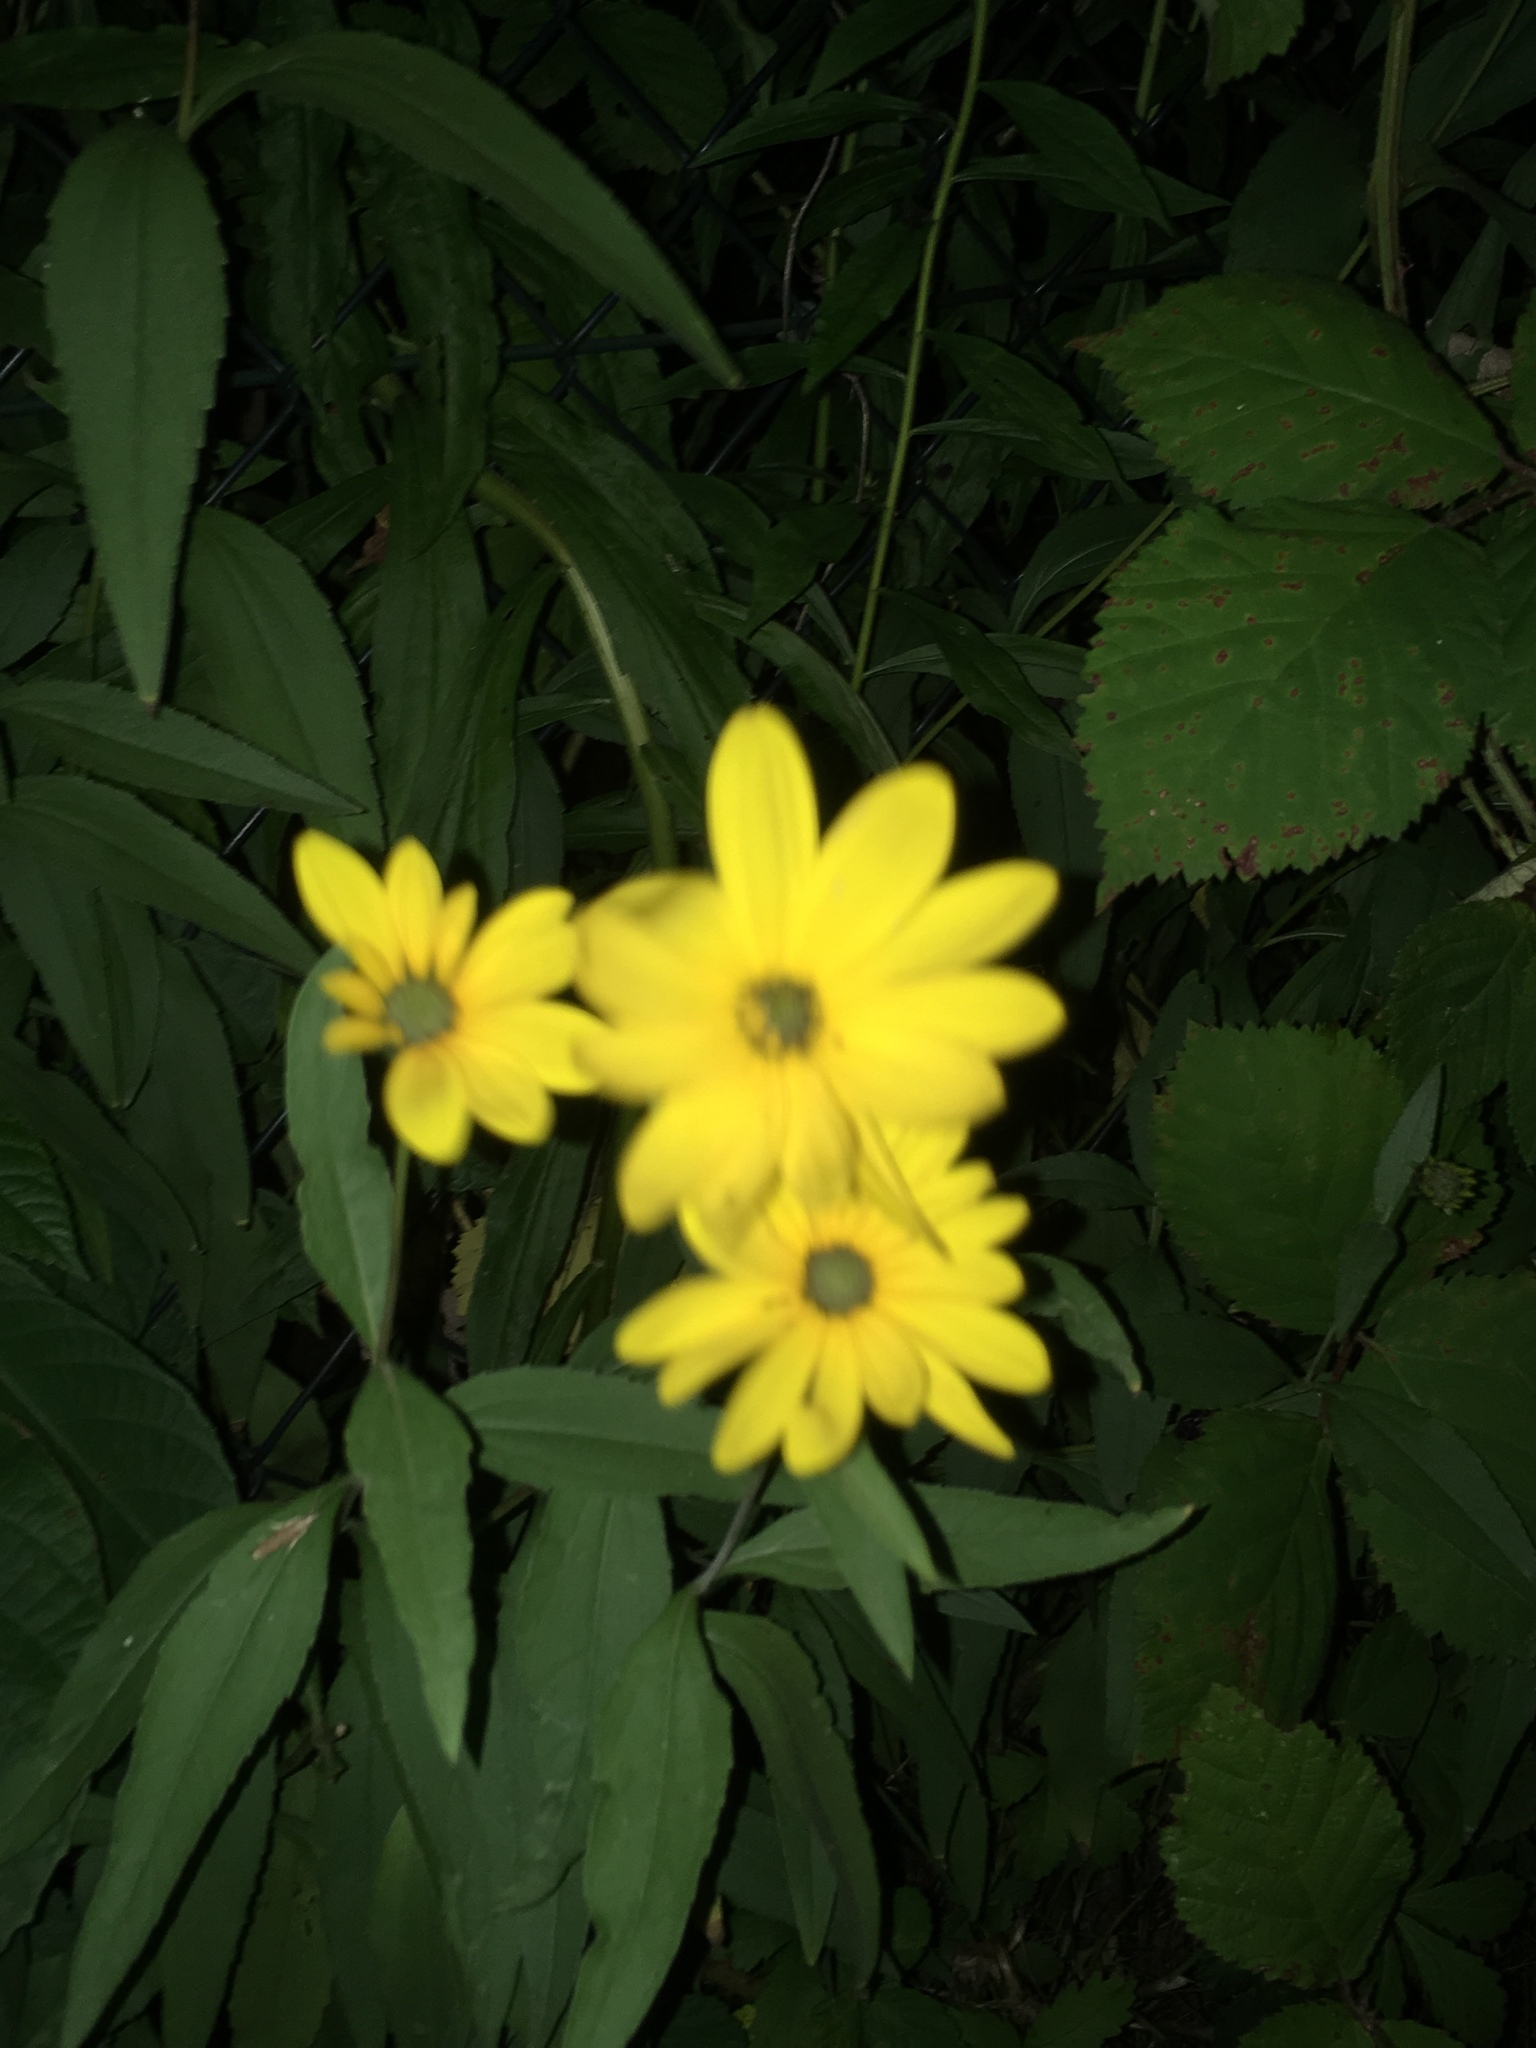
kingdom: Plantae
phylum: Tracheophyta
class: Magnoliopsida
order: Asterales
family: Asteraceae
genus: Helianthus
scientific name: Helianthus tuberosus
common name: Jerusalem artichoke
